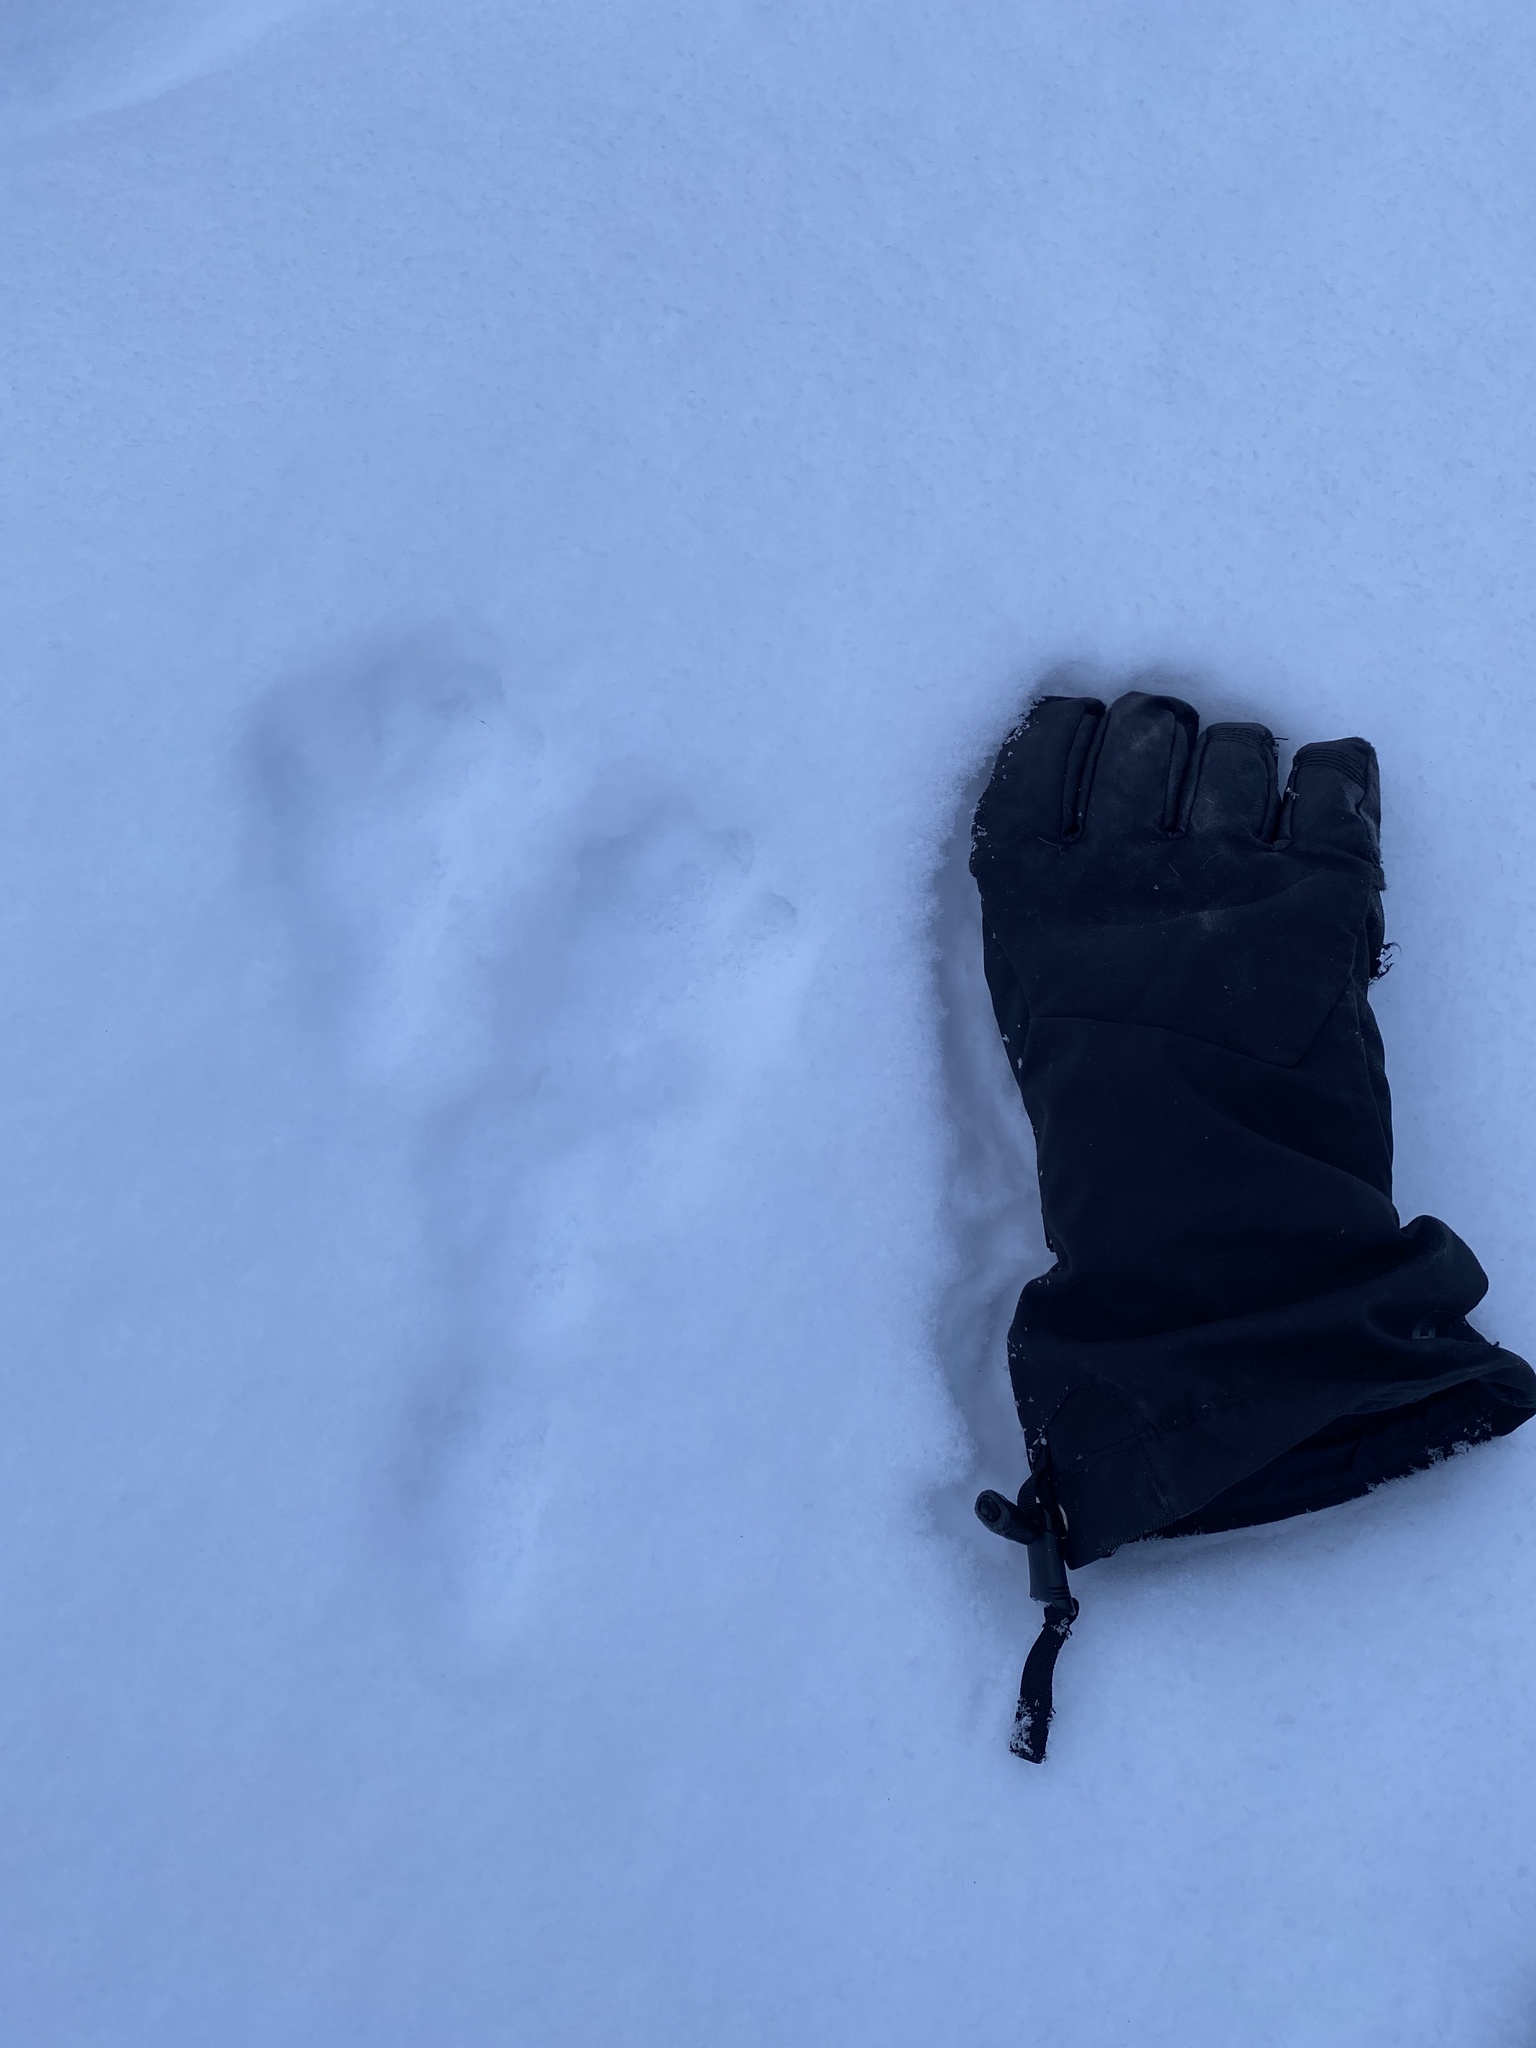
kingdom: Animalia
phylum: Chordata
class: Mammalia
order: Lagomorpha
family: Leporidae
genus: Lepus
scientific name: Lepus americanus
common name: Snowshoe hare
